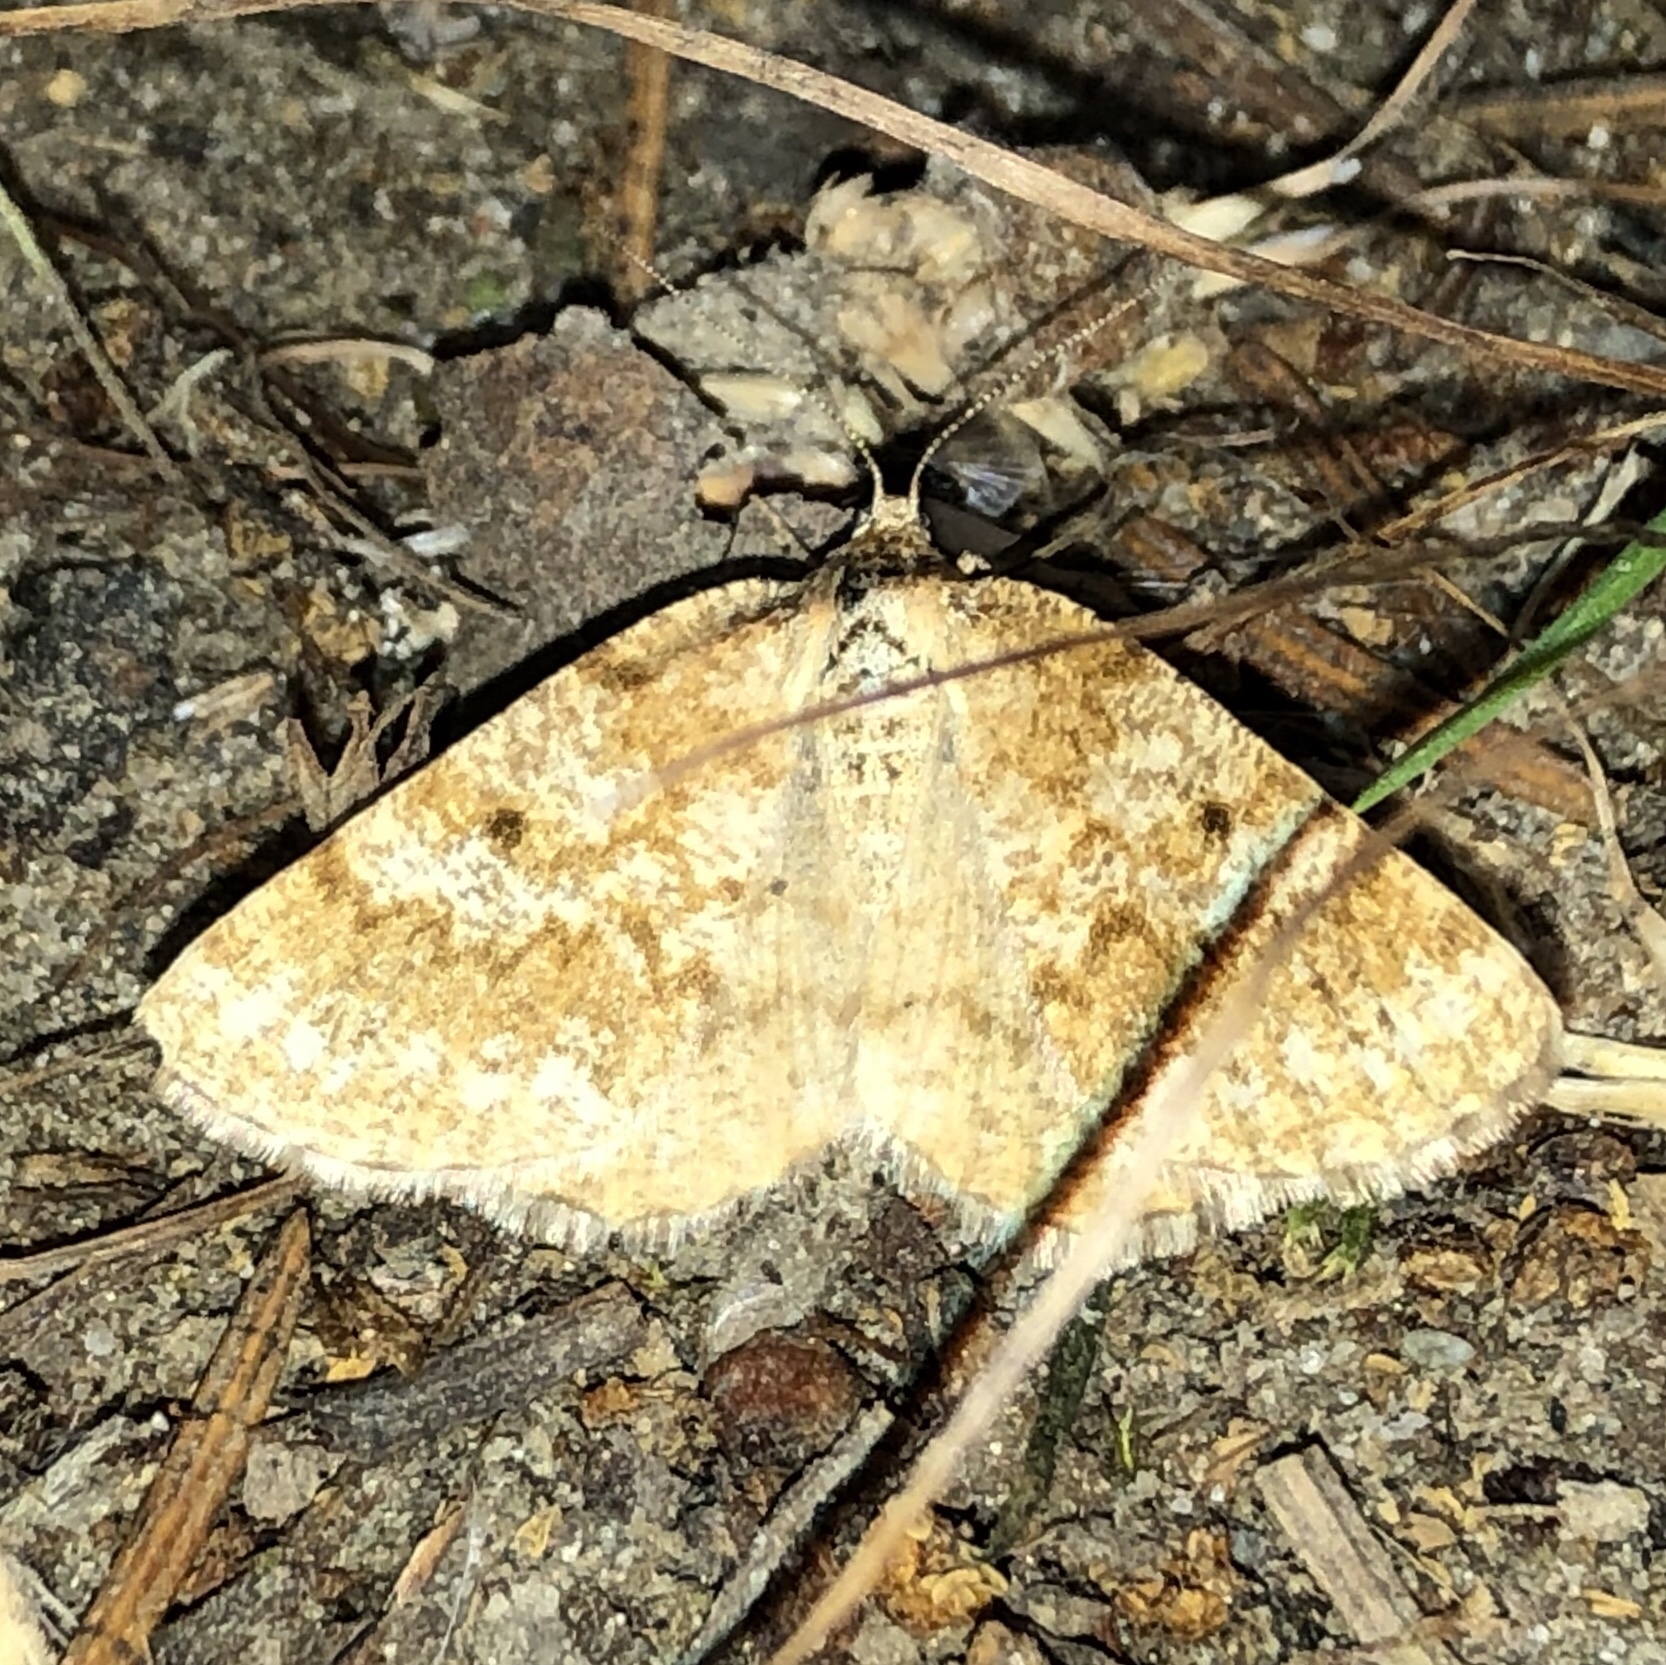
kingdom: Animalia
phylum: Arthropoda
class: Insecta
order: Lepidoptera
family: Geometridae
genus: Eufidonia
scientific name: Eufidonia notataria
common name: Powder moth
